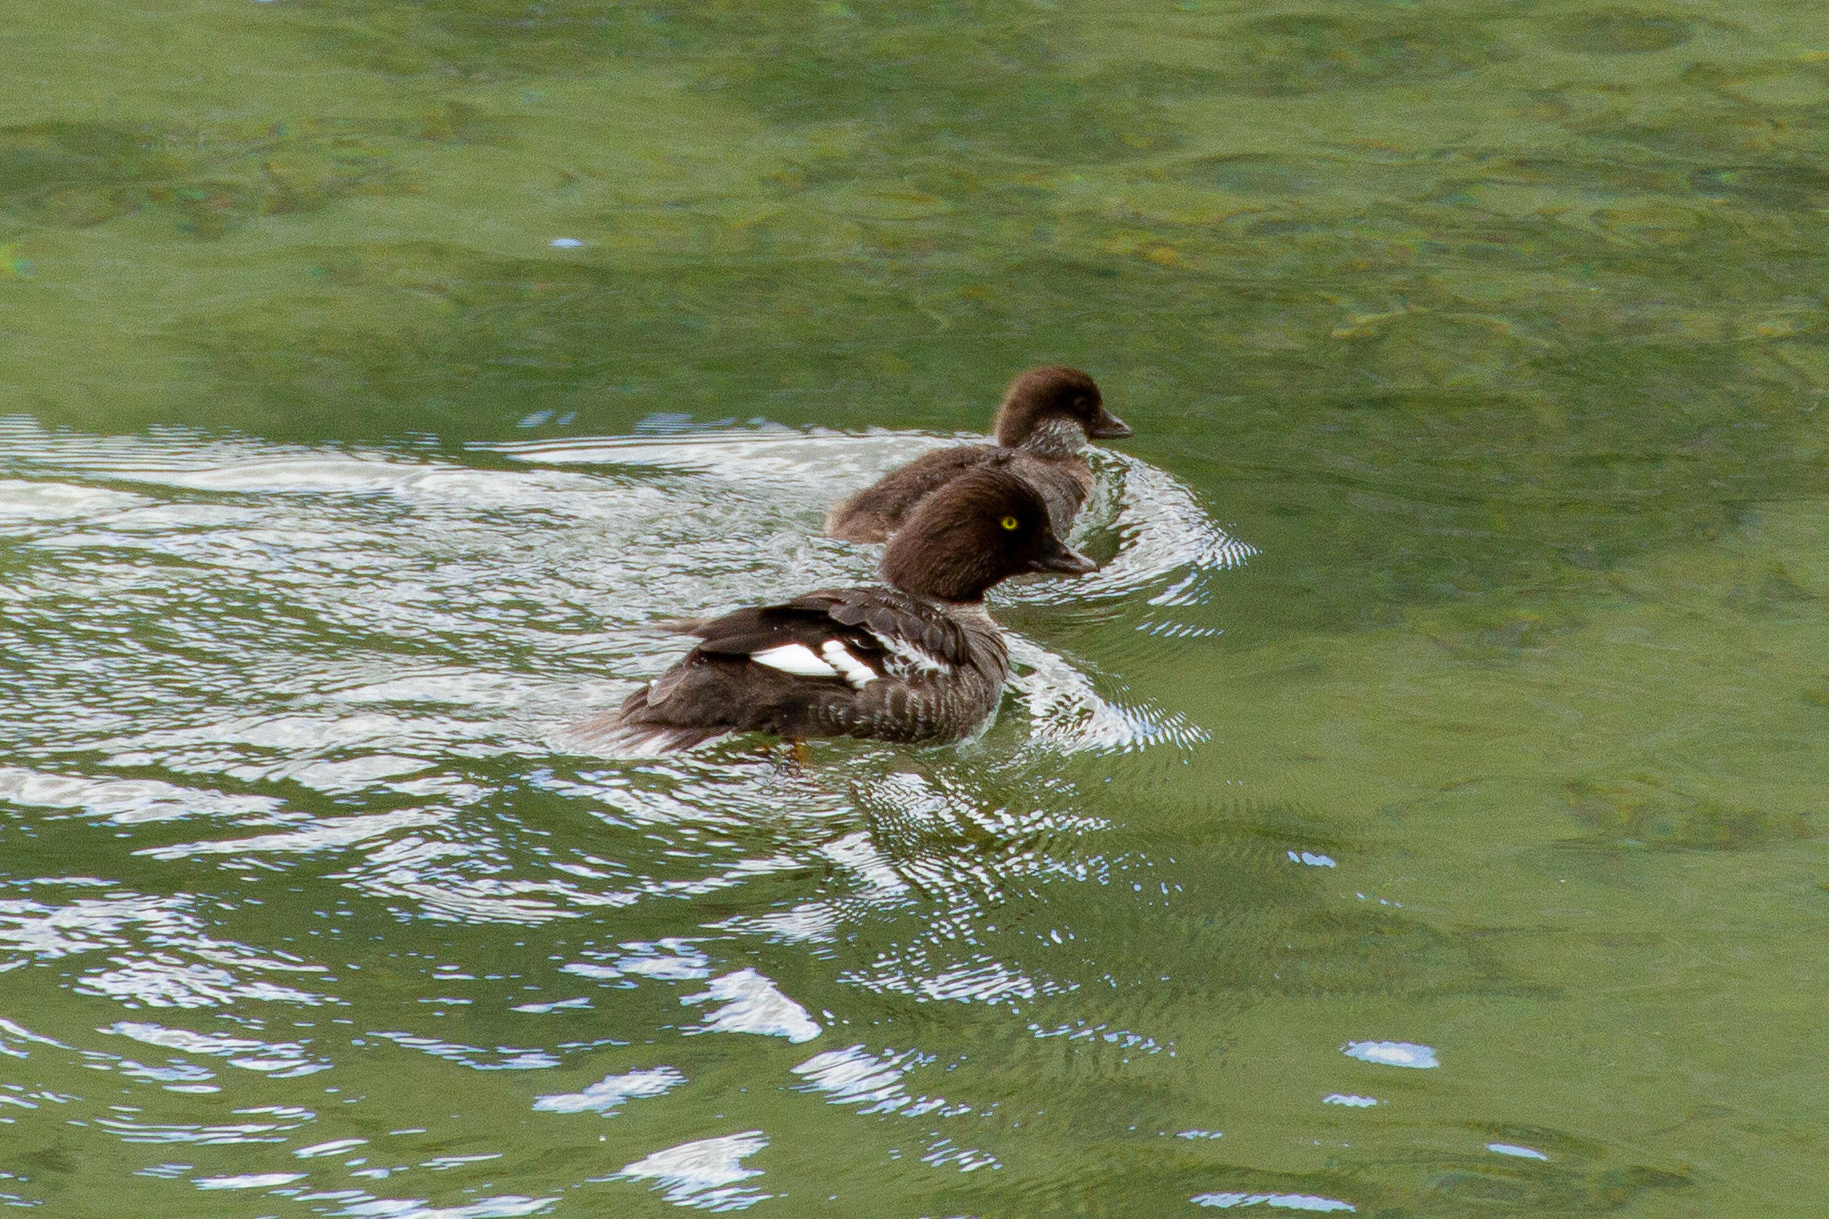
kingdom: Animalia
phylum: Chordata
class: Aves
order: Anseriformes
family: Anatidae
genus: Bucephala
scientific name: Bucephala islandica
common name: Barrow's goldeneye
